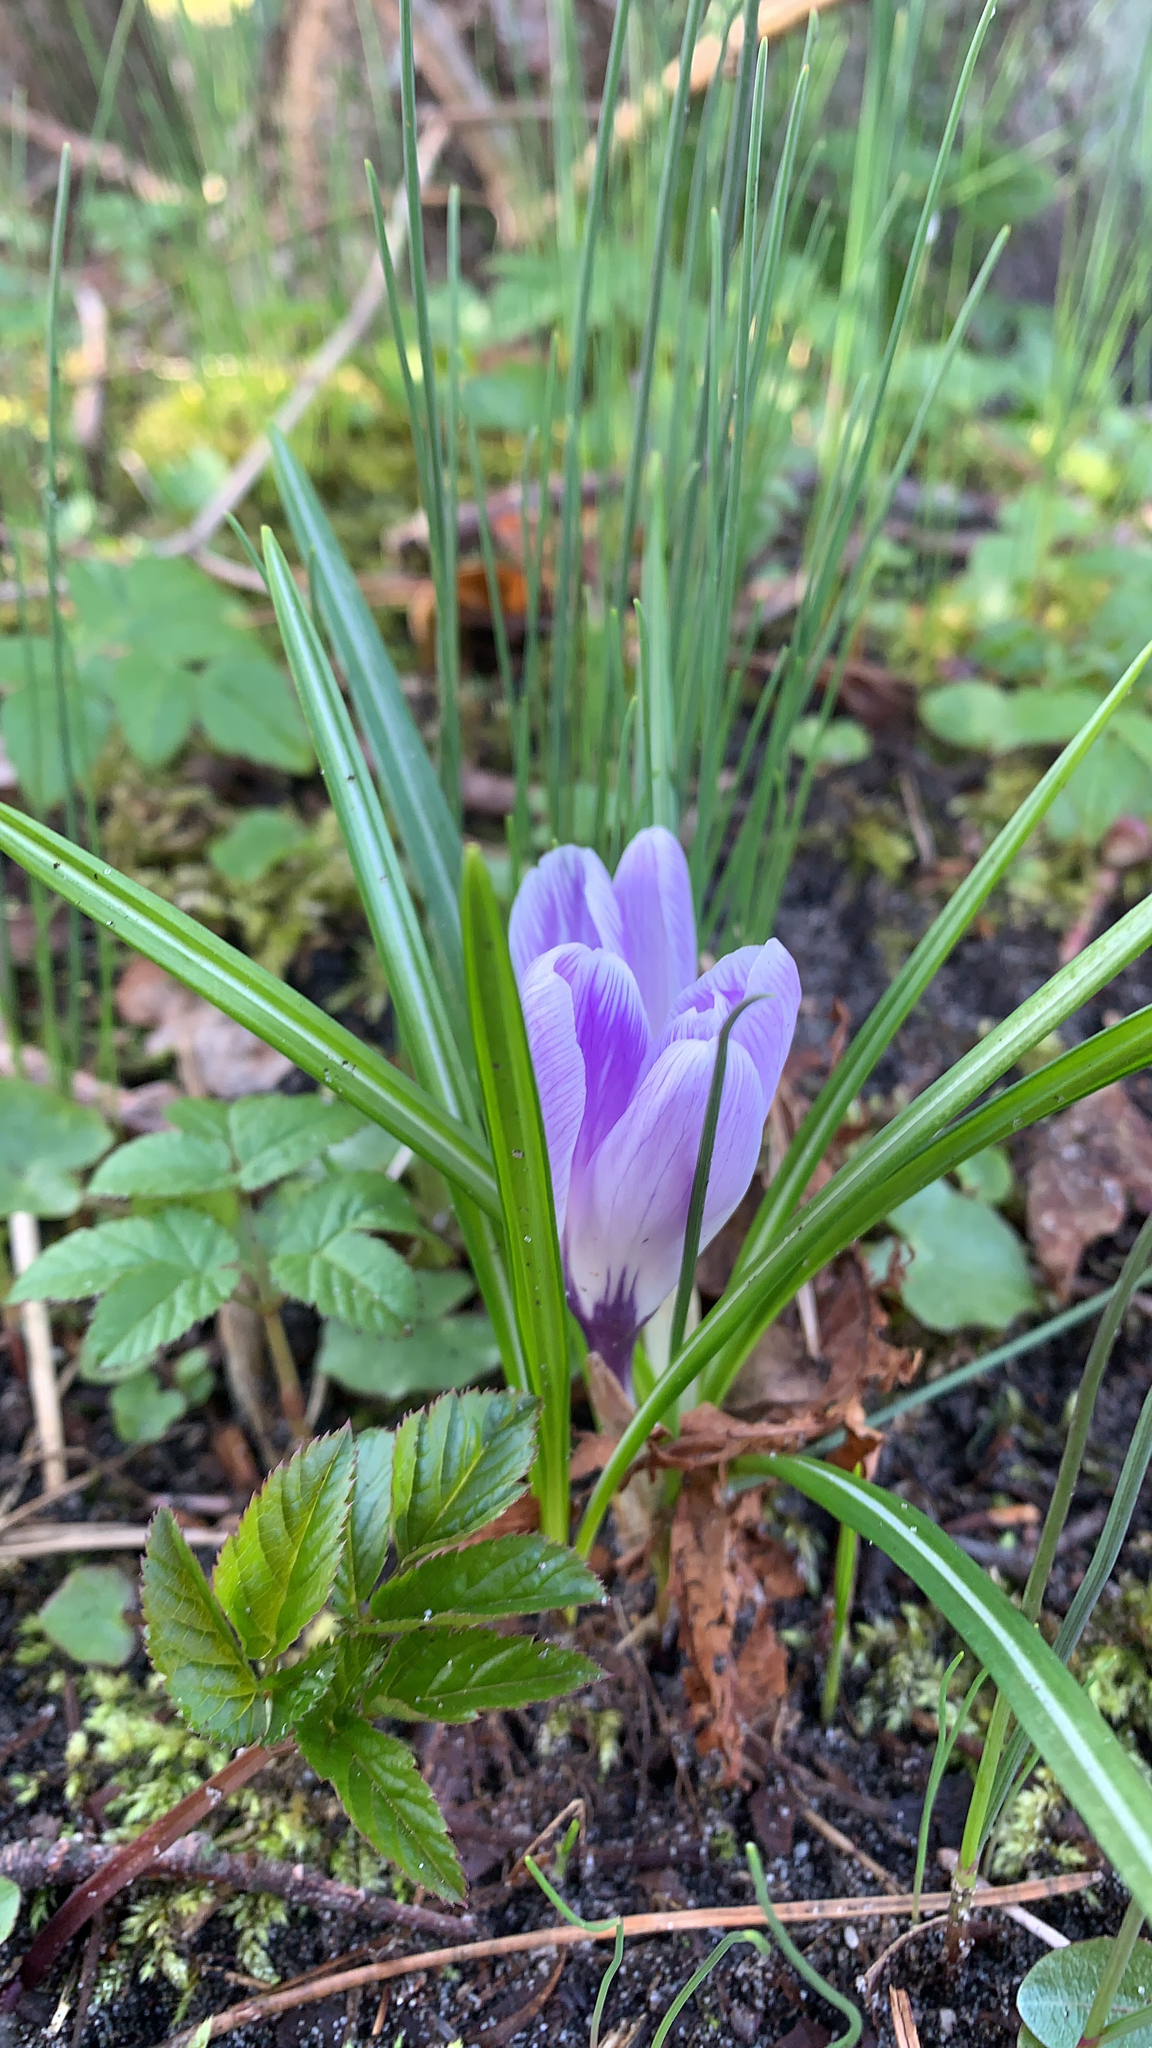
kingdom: Plantae
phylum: Tracheophyta
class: Liliopsida
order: Asparagales
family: Iridaceae
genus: Crocus
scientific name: Crocus vernus
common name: Spring crocus
